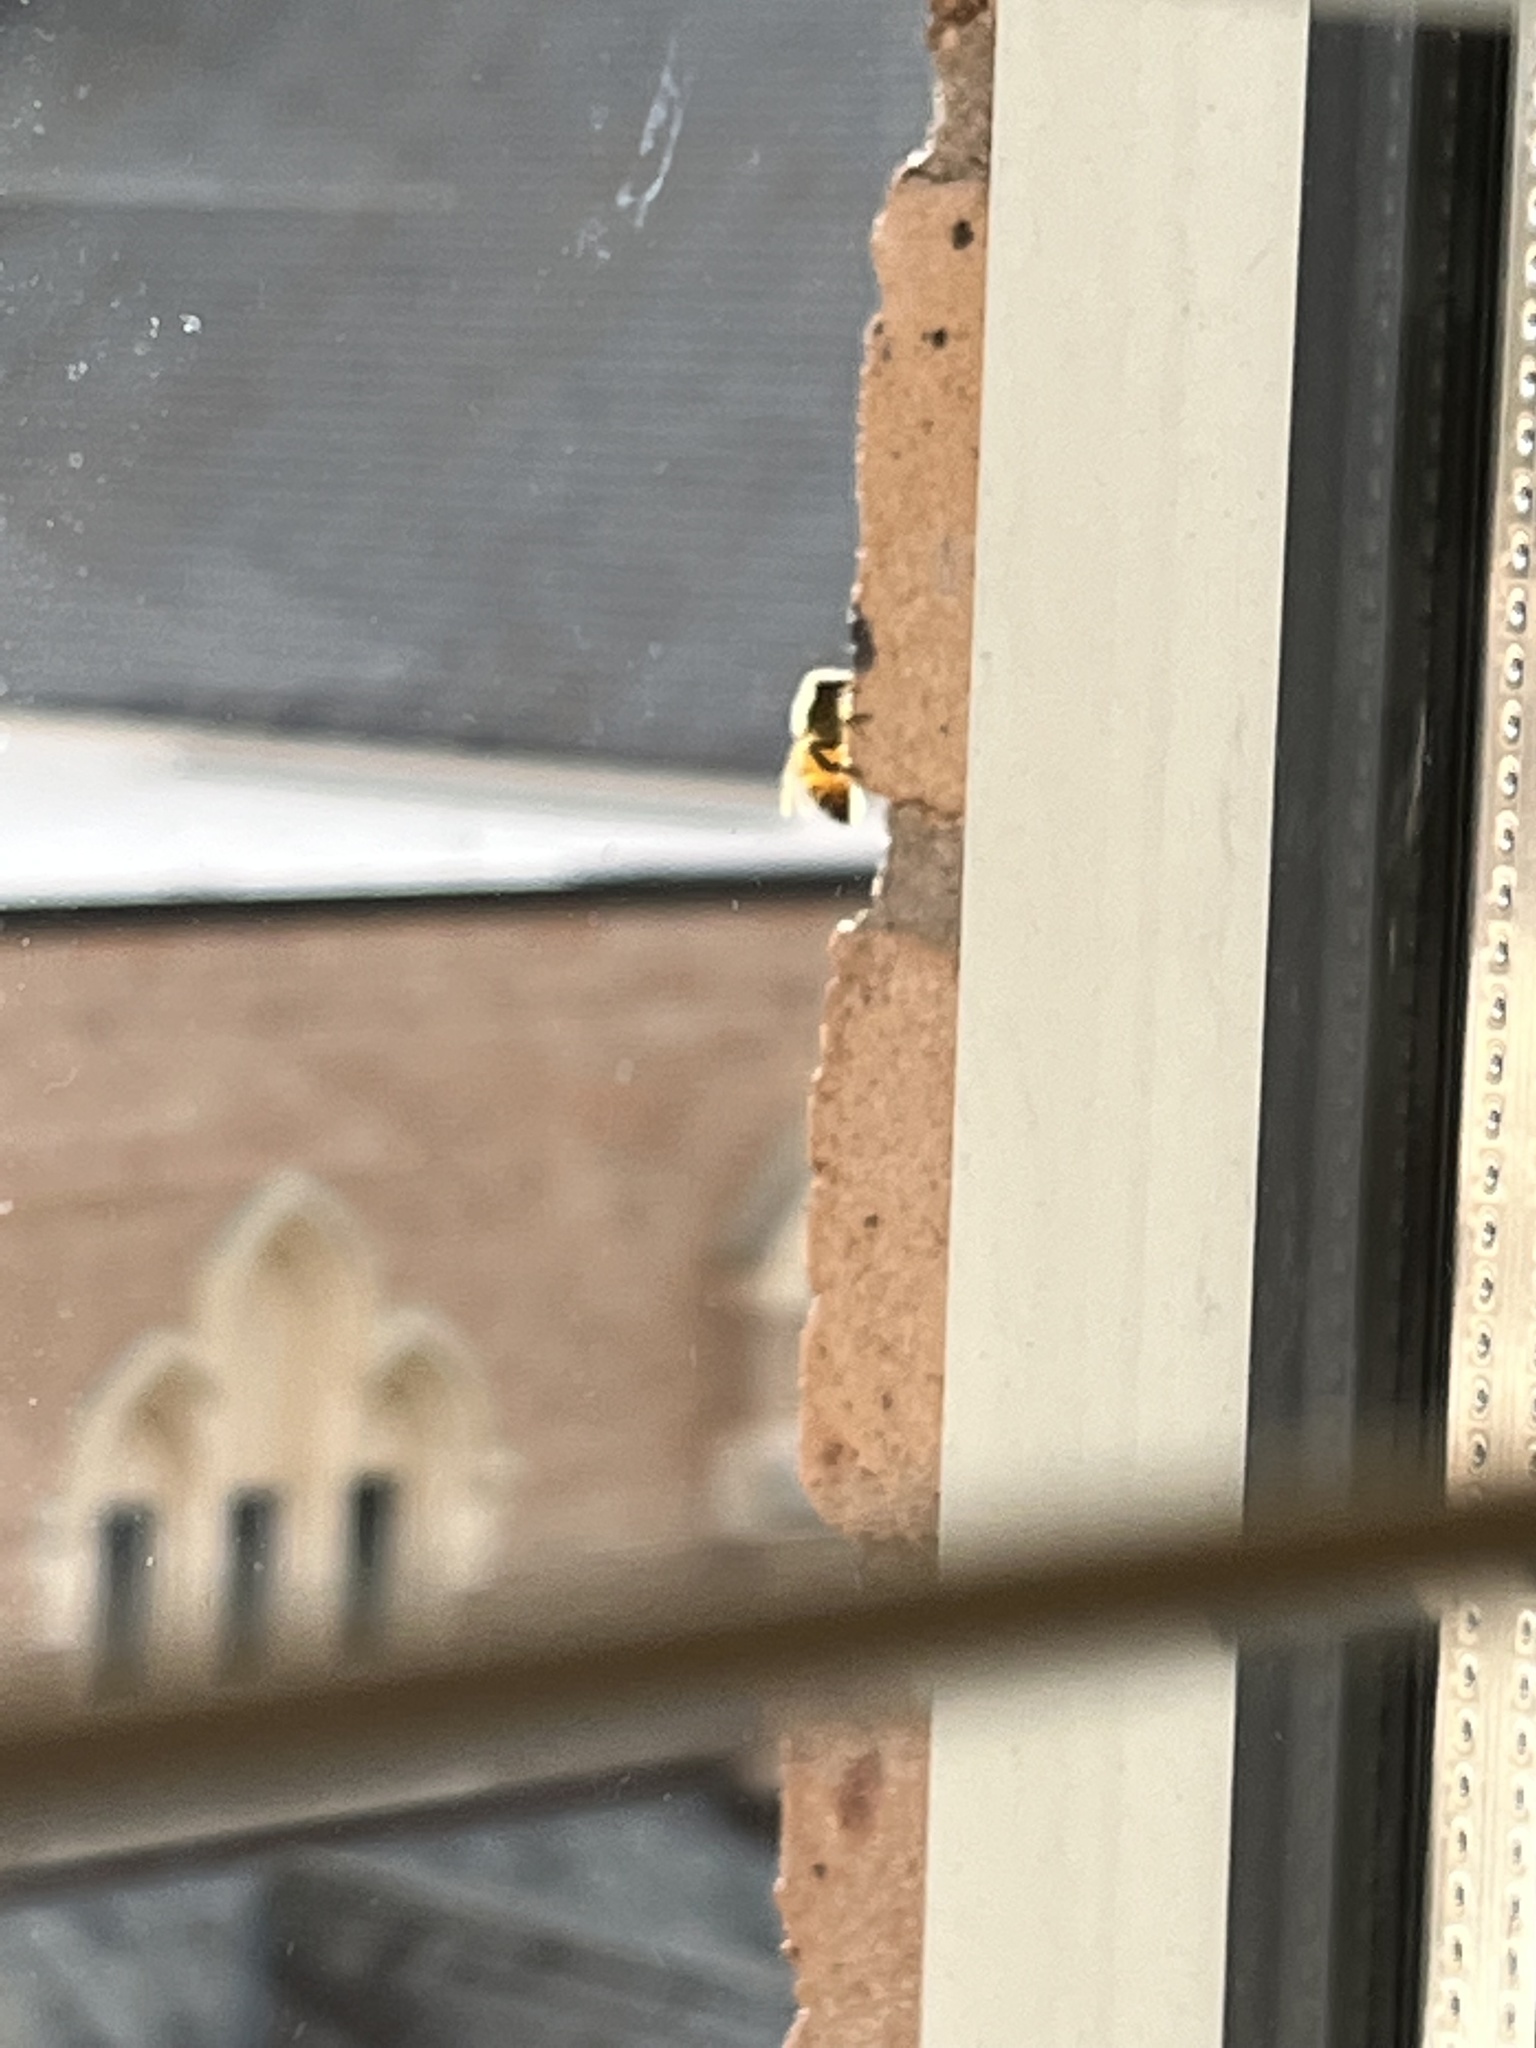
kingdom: Animalia
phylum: Arthropoda
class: Insecta
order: Hymenoptera
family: Apidae
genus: Apis
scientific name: Apis mellifera
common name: Honey bee
